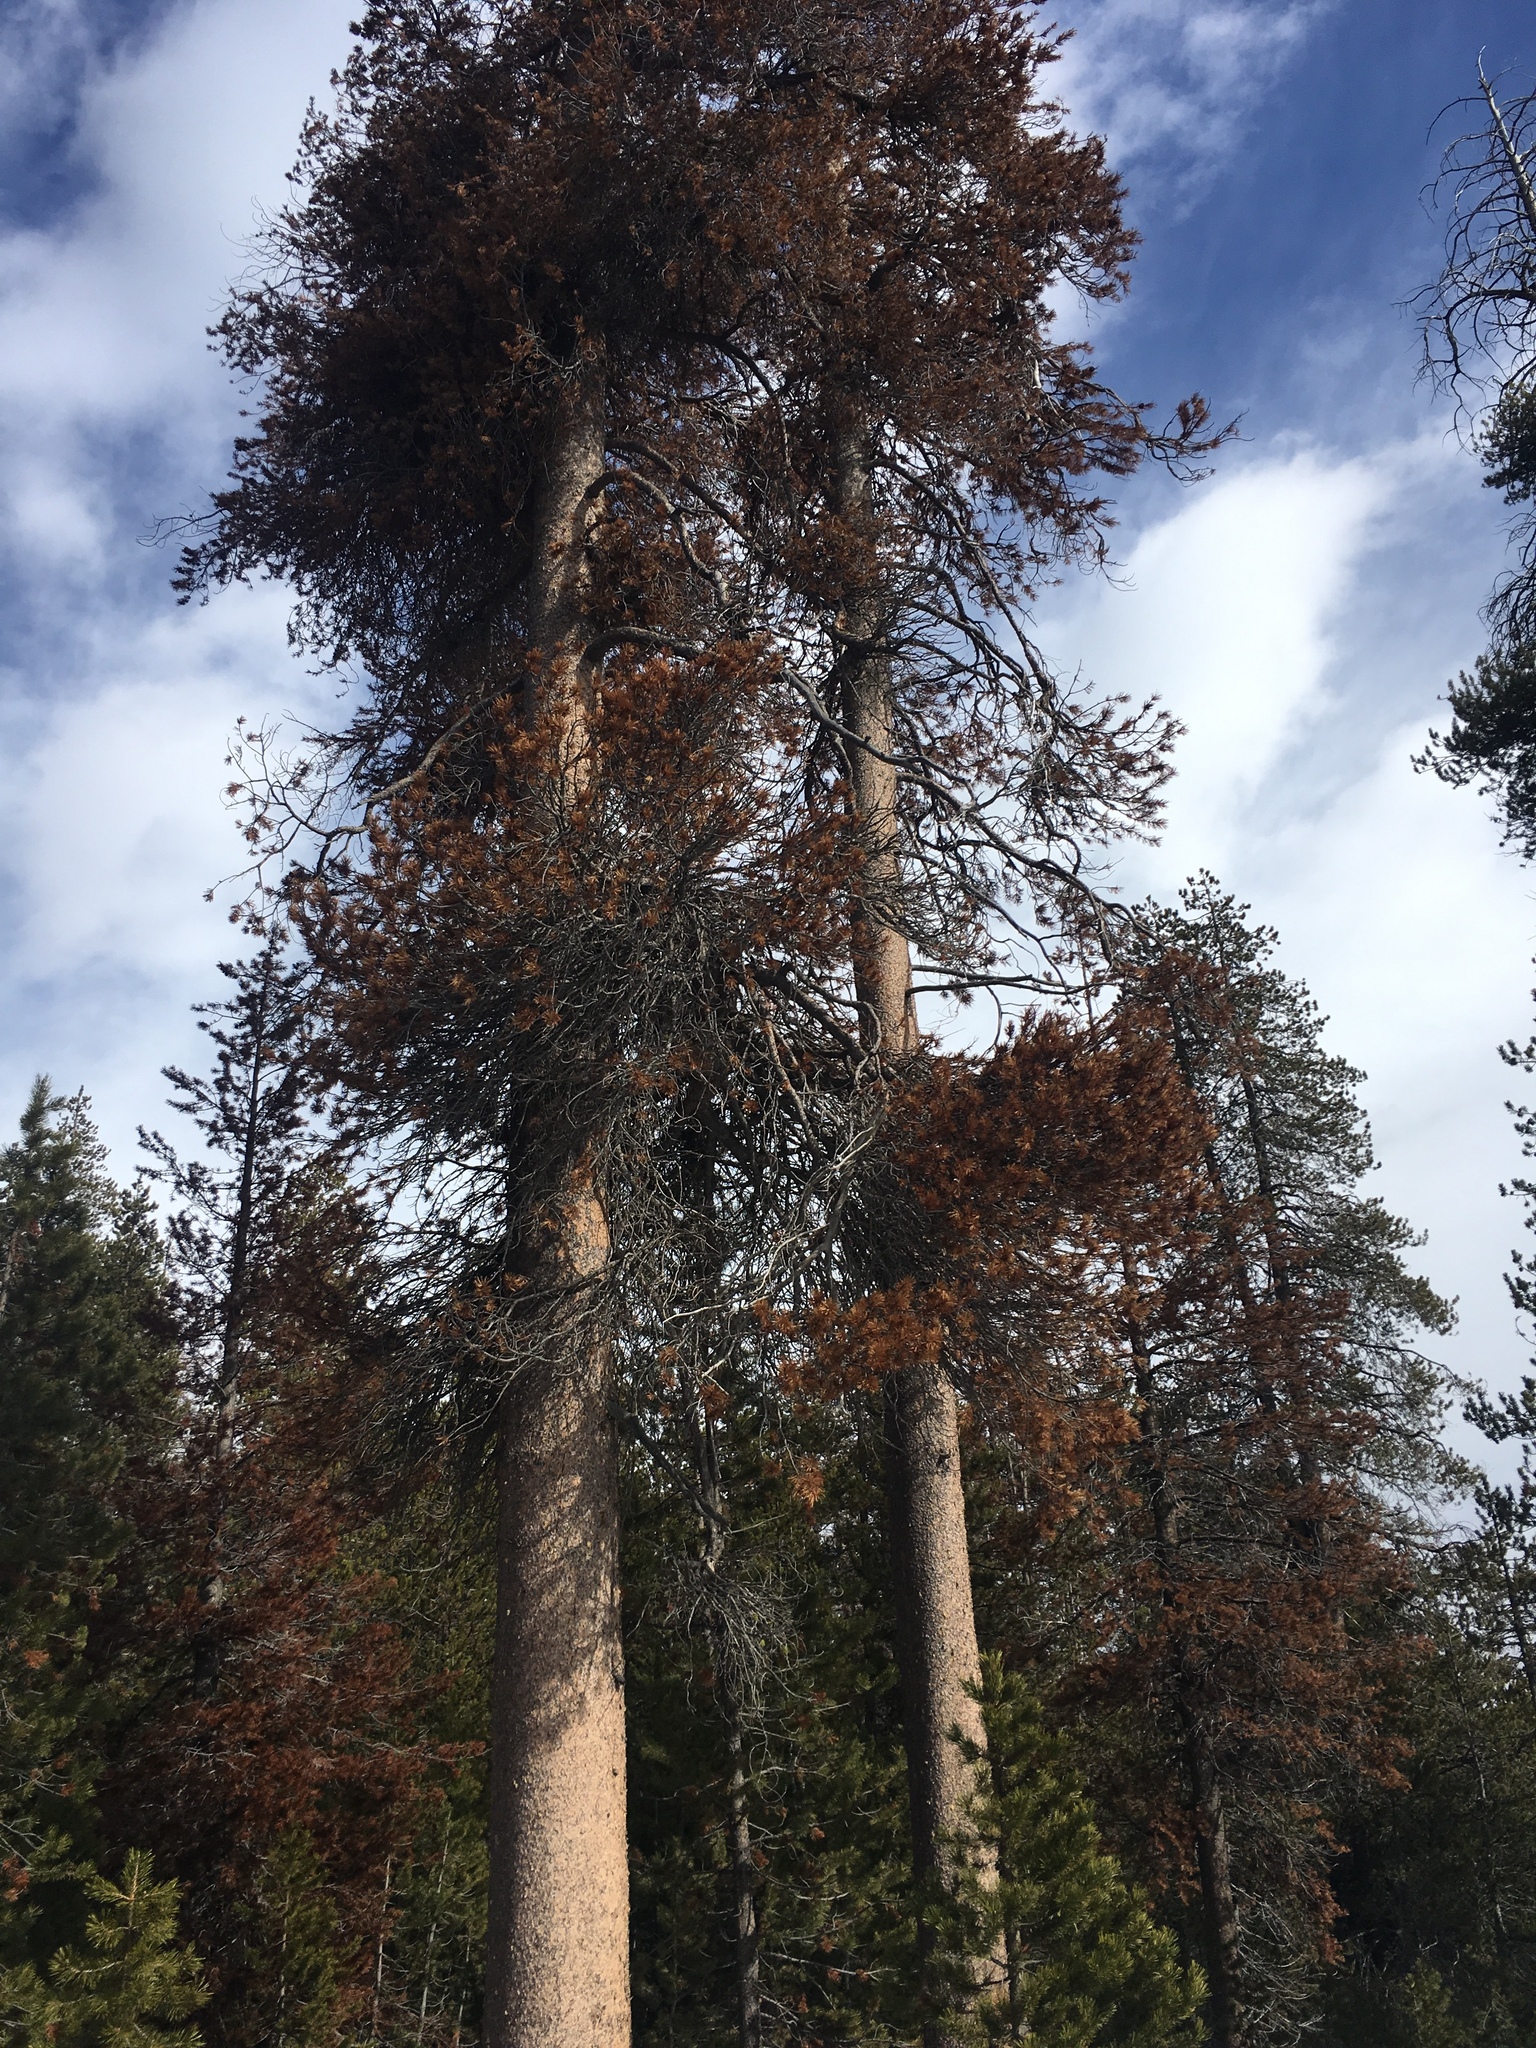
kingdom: Plantae
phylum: Tracheophyta
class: Pinopsida
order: Pinales
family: Pinaceae
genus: Pinus
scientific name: Pinus contorta
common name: Lodgepole pine
